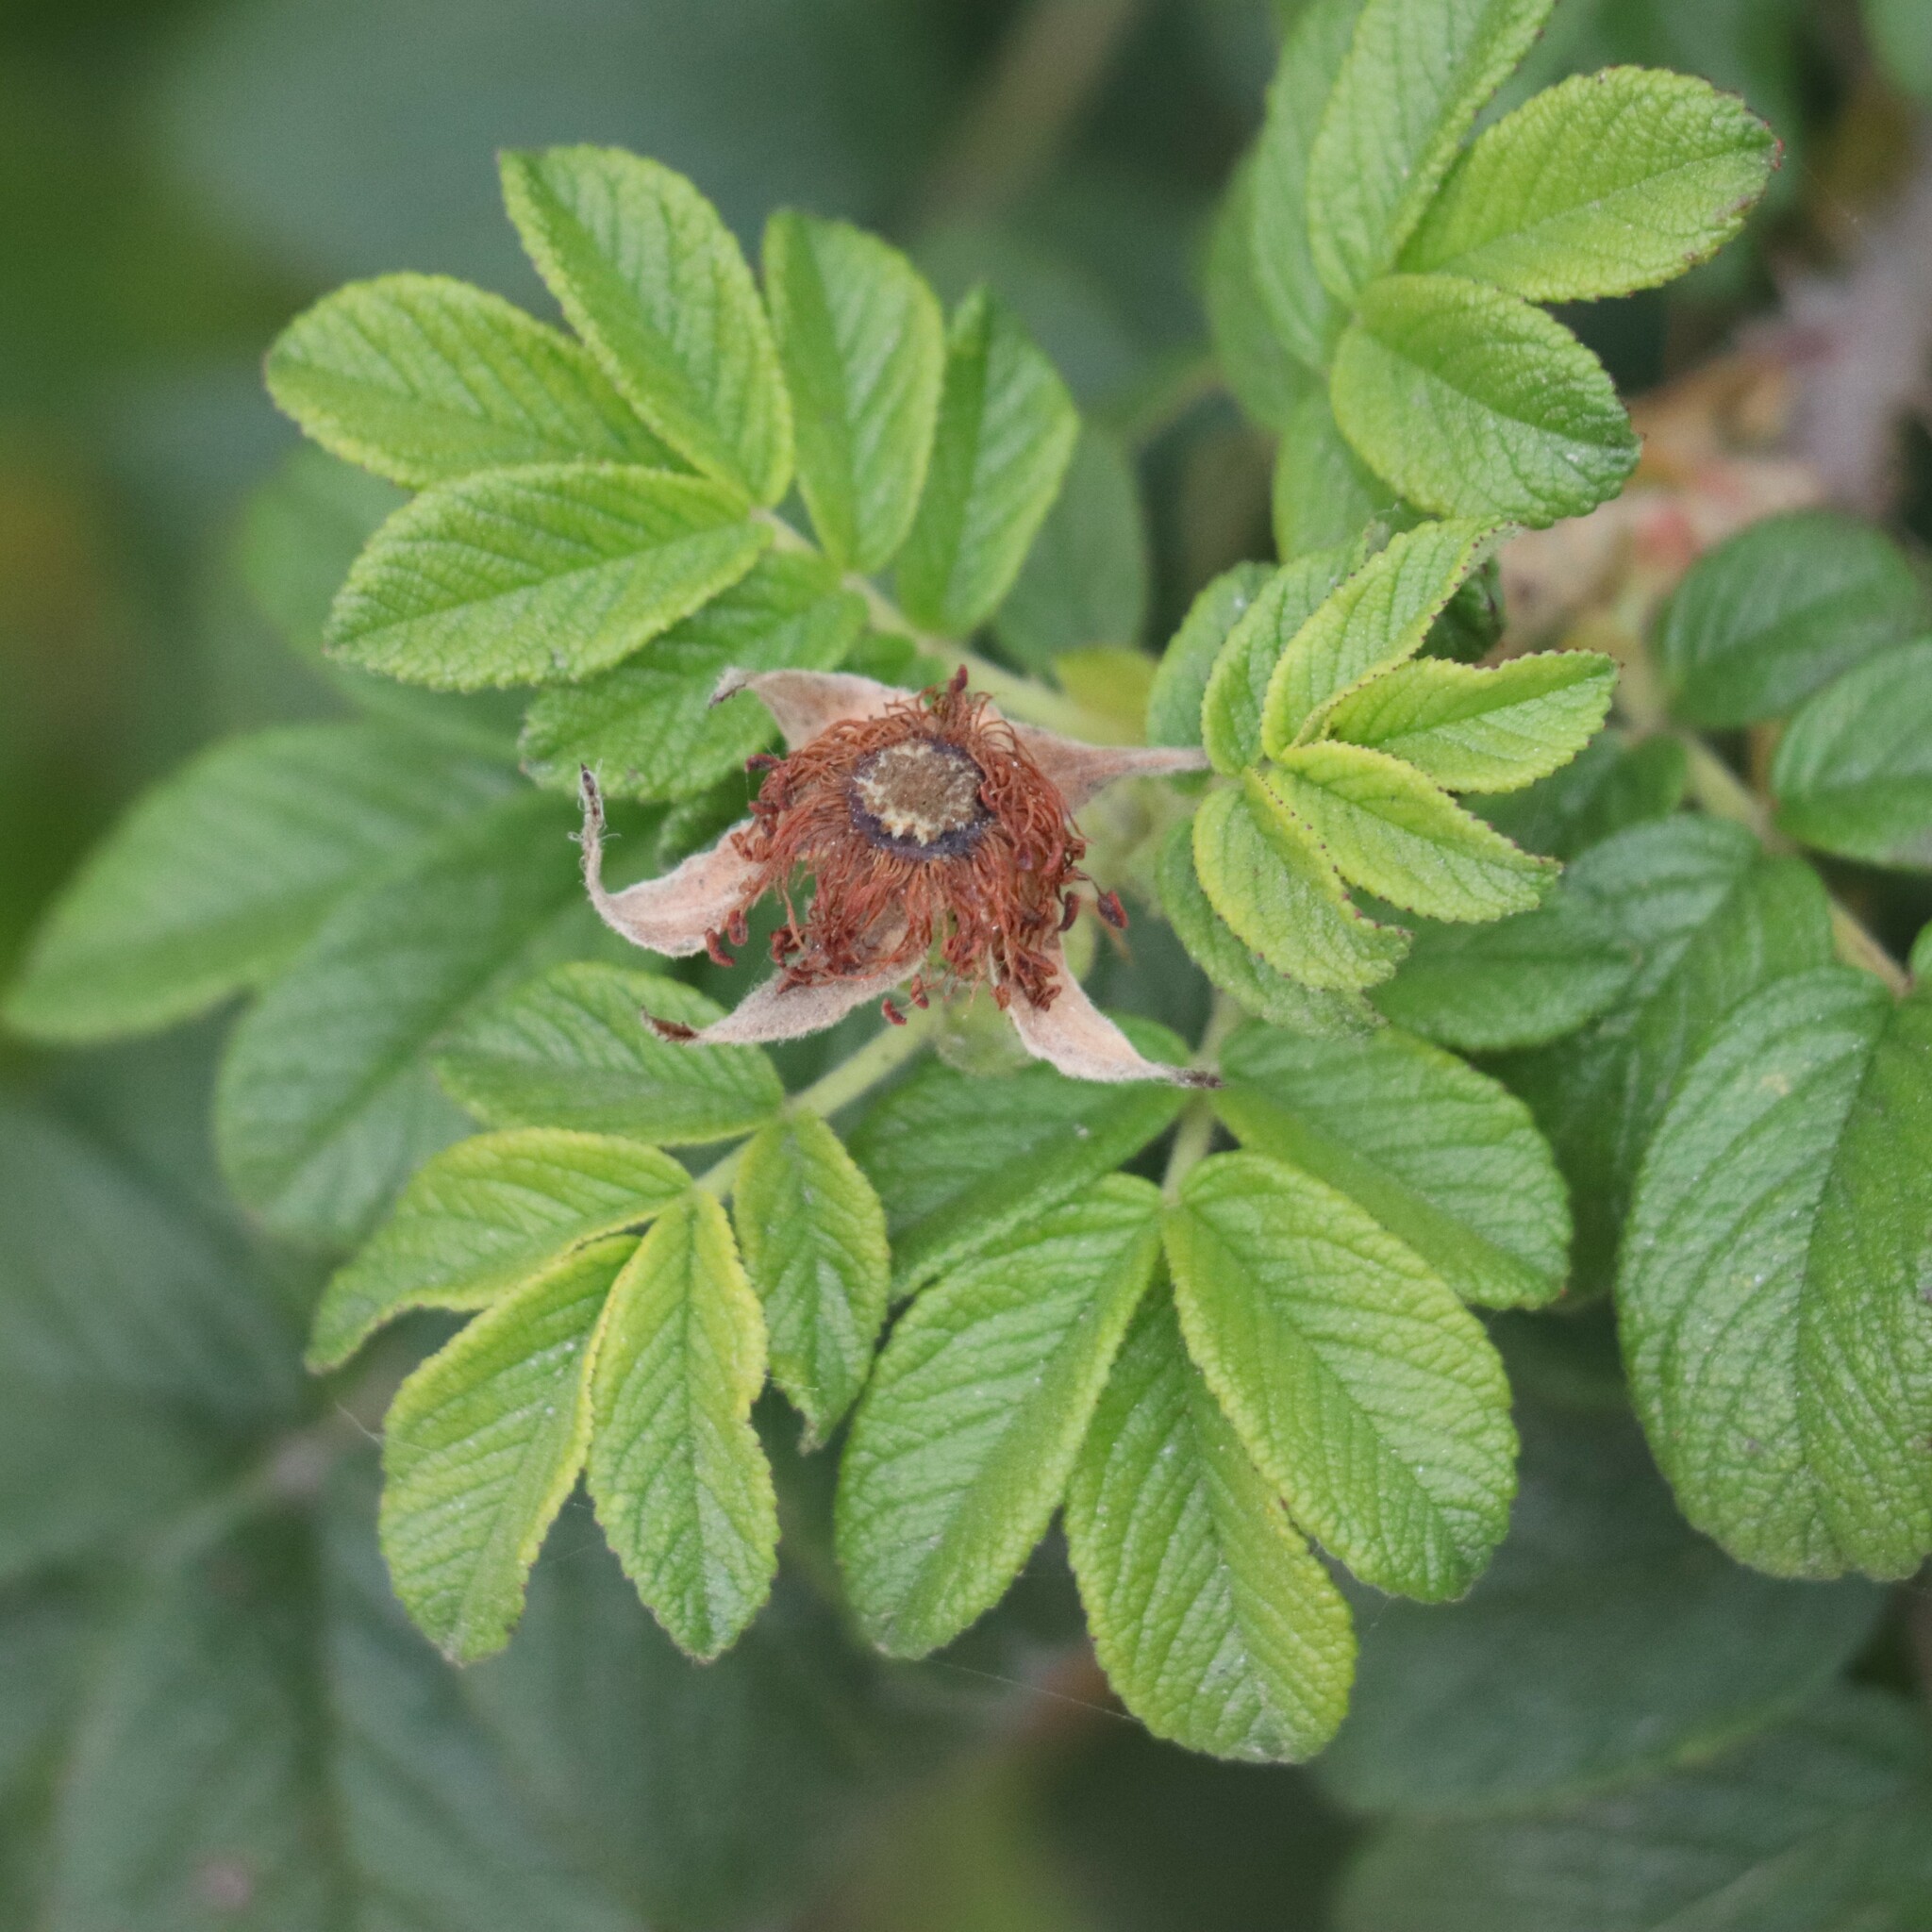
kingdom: Plantae
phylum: Tracheophyta
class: Magnoliopsida
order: Rosales
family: Rosaceae
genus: Rosa
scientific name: Rosa rugosa
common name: Japanese rose
